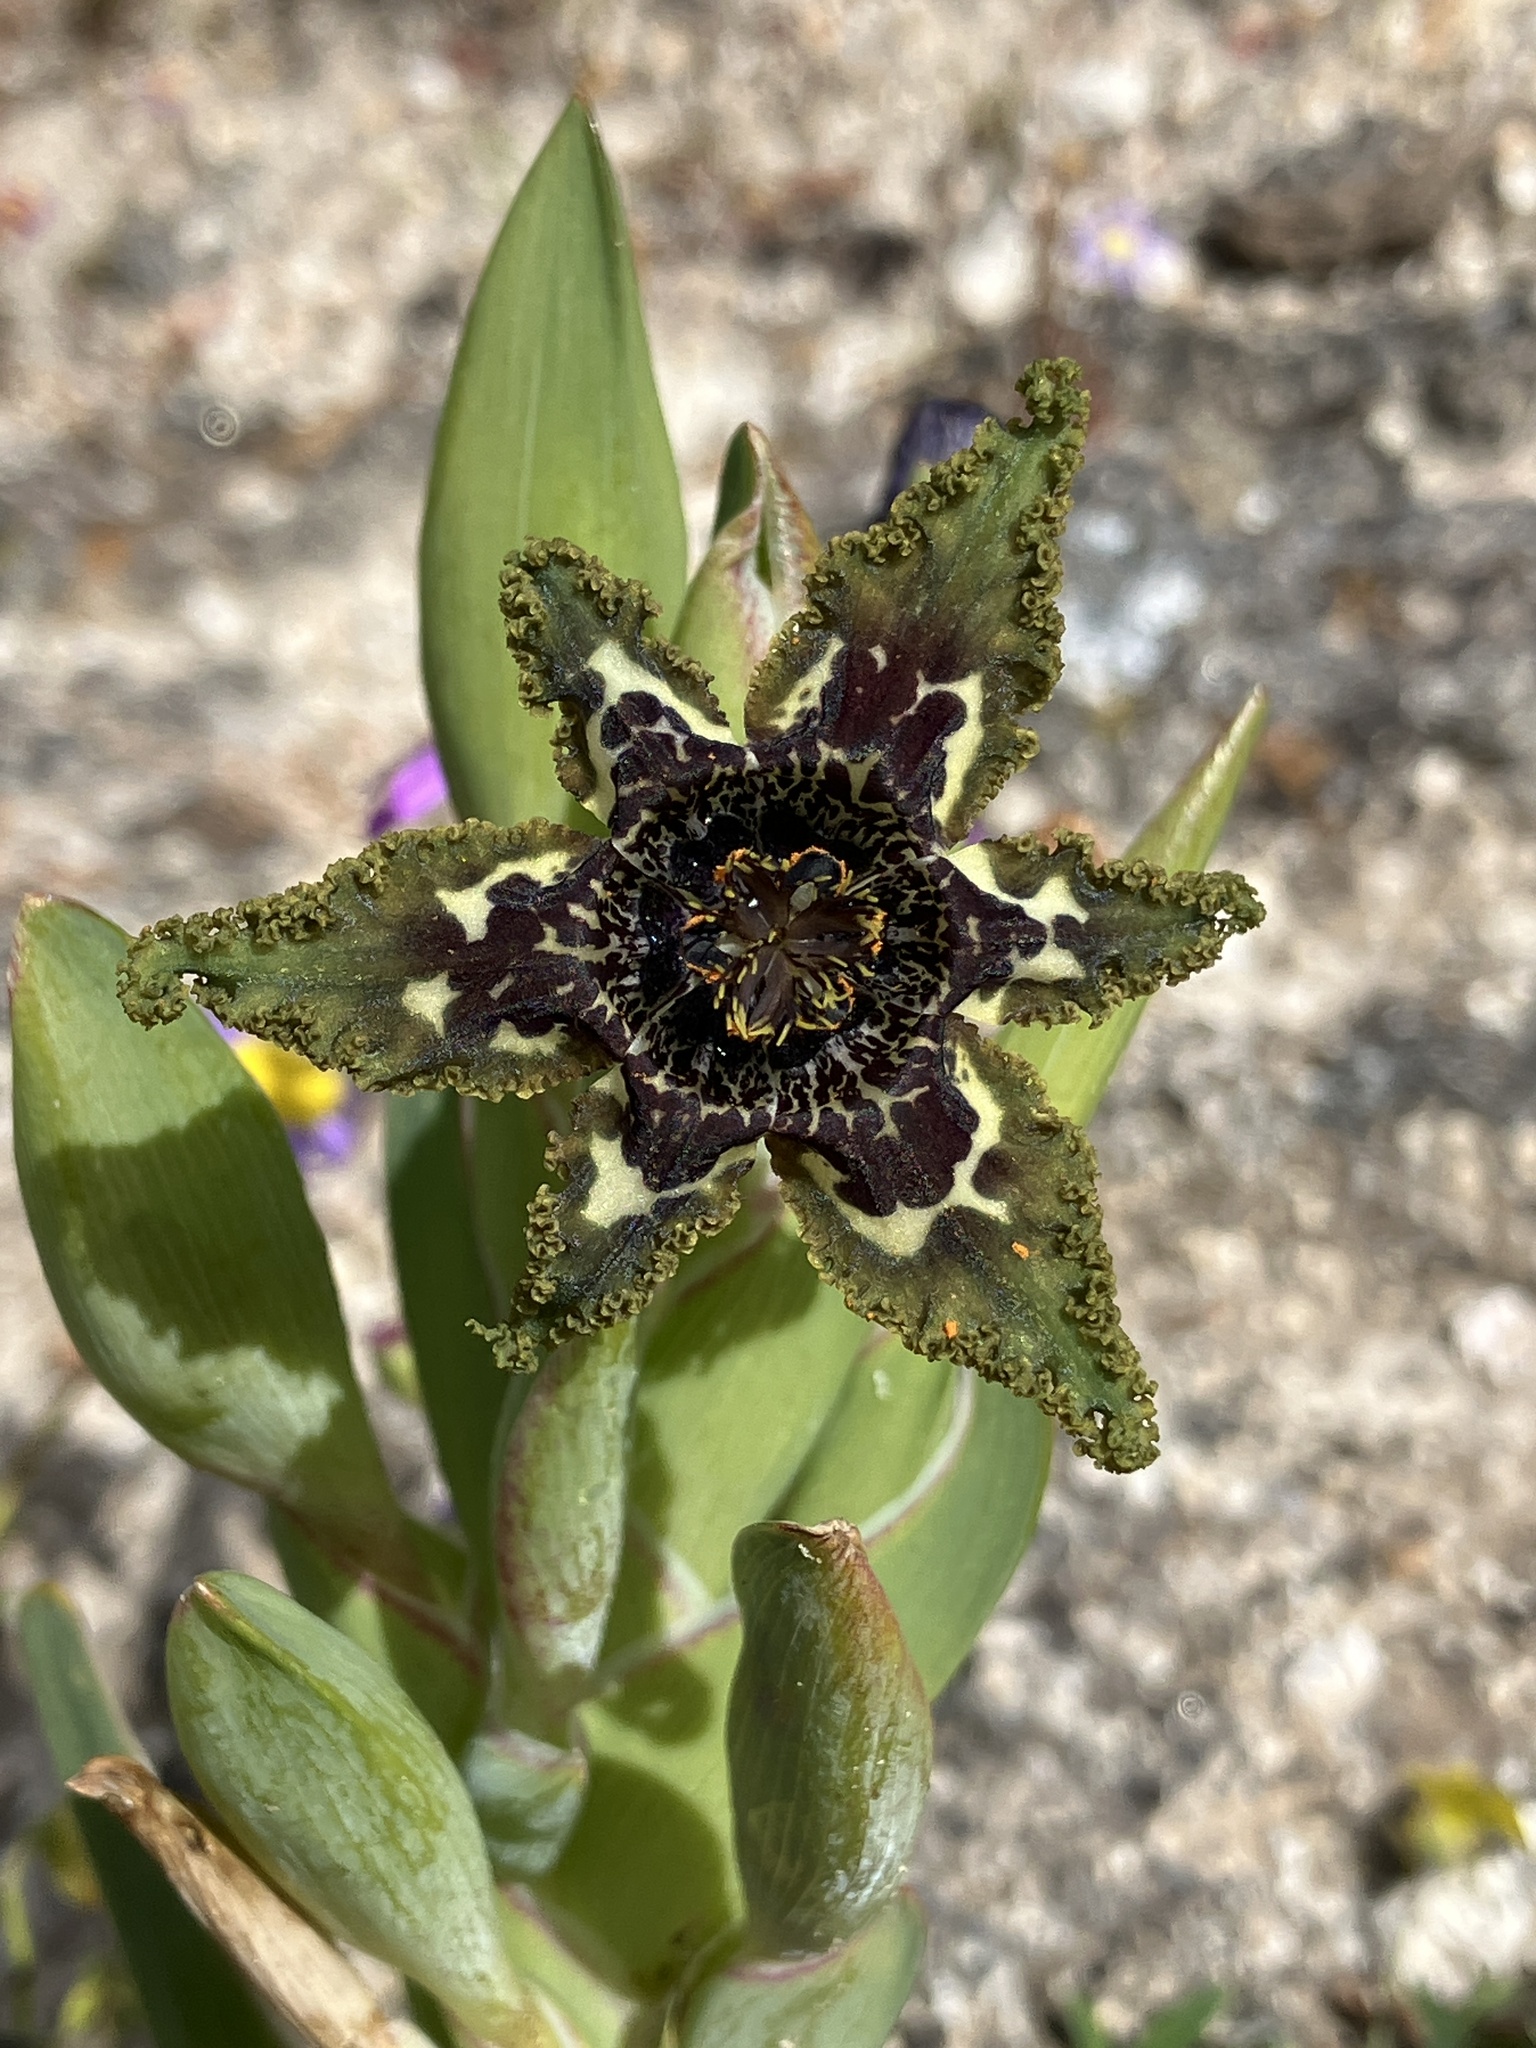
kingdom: Plantae
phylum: Tracheophyta
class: Liliopsida
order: Asparagales
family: Iridaceae
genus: Ferraria
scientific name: Ferraria crispa
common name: Black-flag
